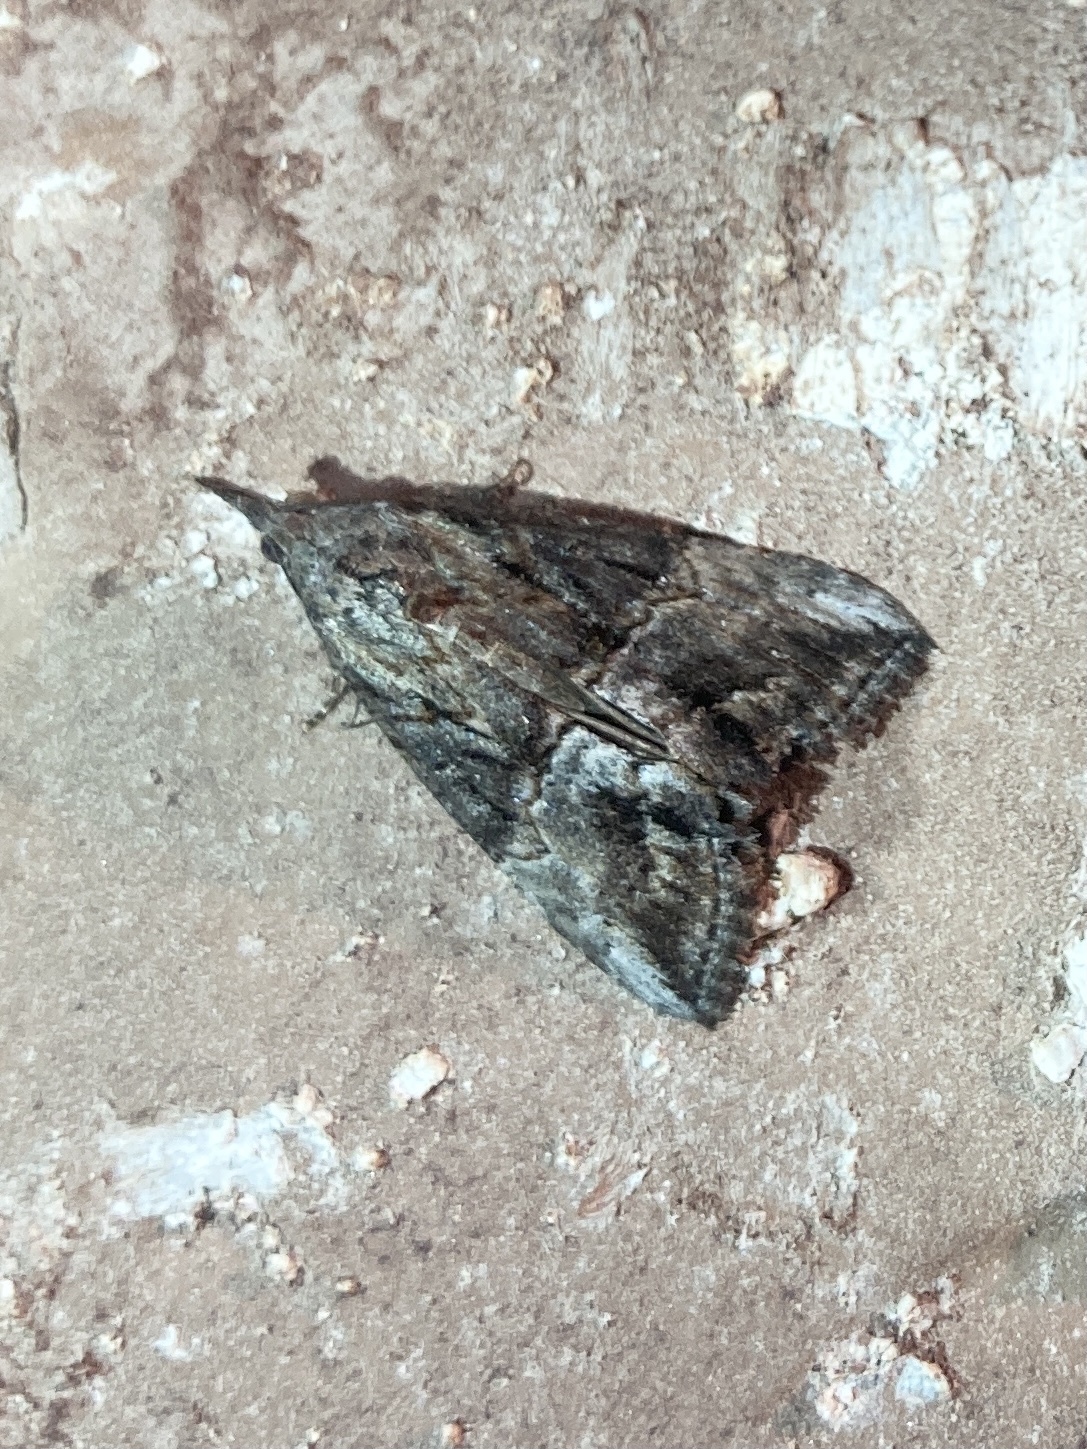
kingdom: Animalia
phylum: Arthropoda
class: Insecta
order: Lepidoptera
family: Erebidae
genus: Hypena
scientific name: Hypena scabra
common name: Green cloverworm
